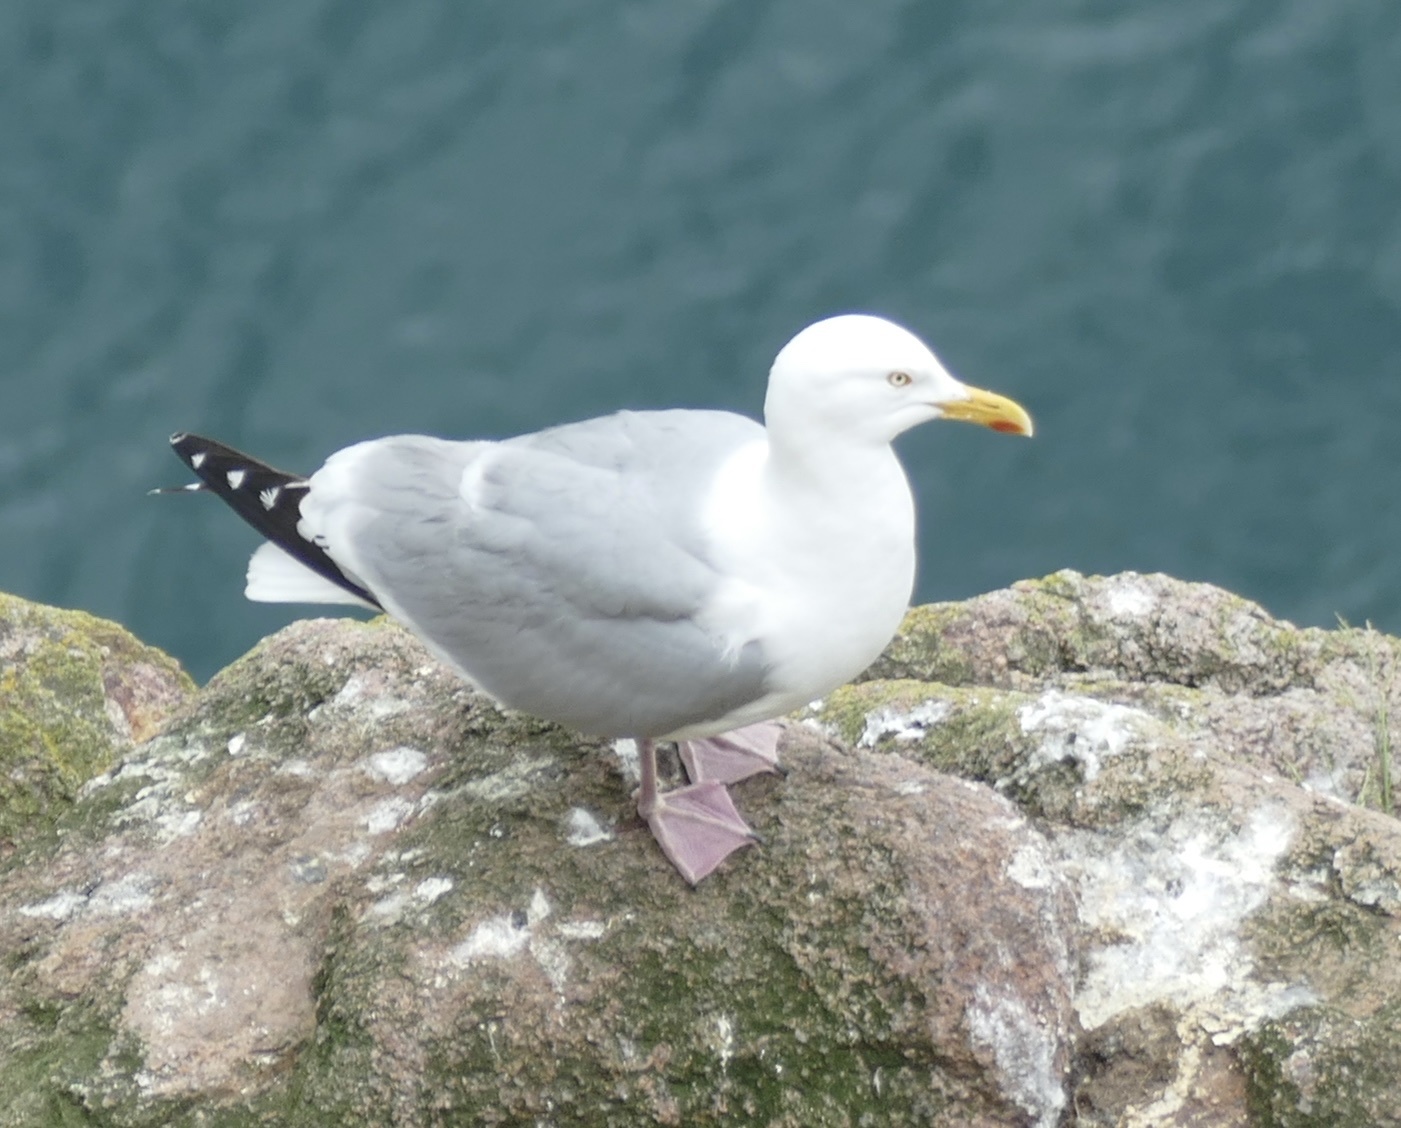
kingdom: Animalia
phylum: Chordata
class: Aves
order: Charadriiformes
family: Laridae
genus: Larus
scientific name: Larus argentatus
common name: Herring gull
